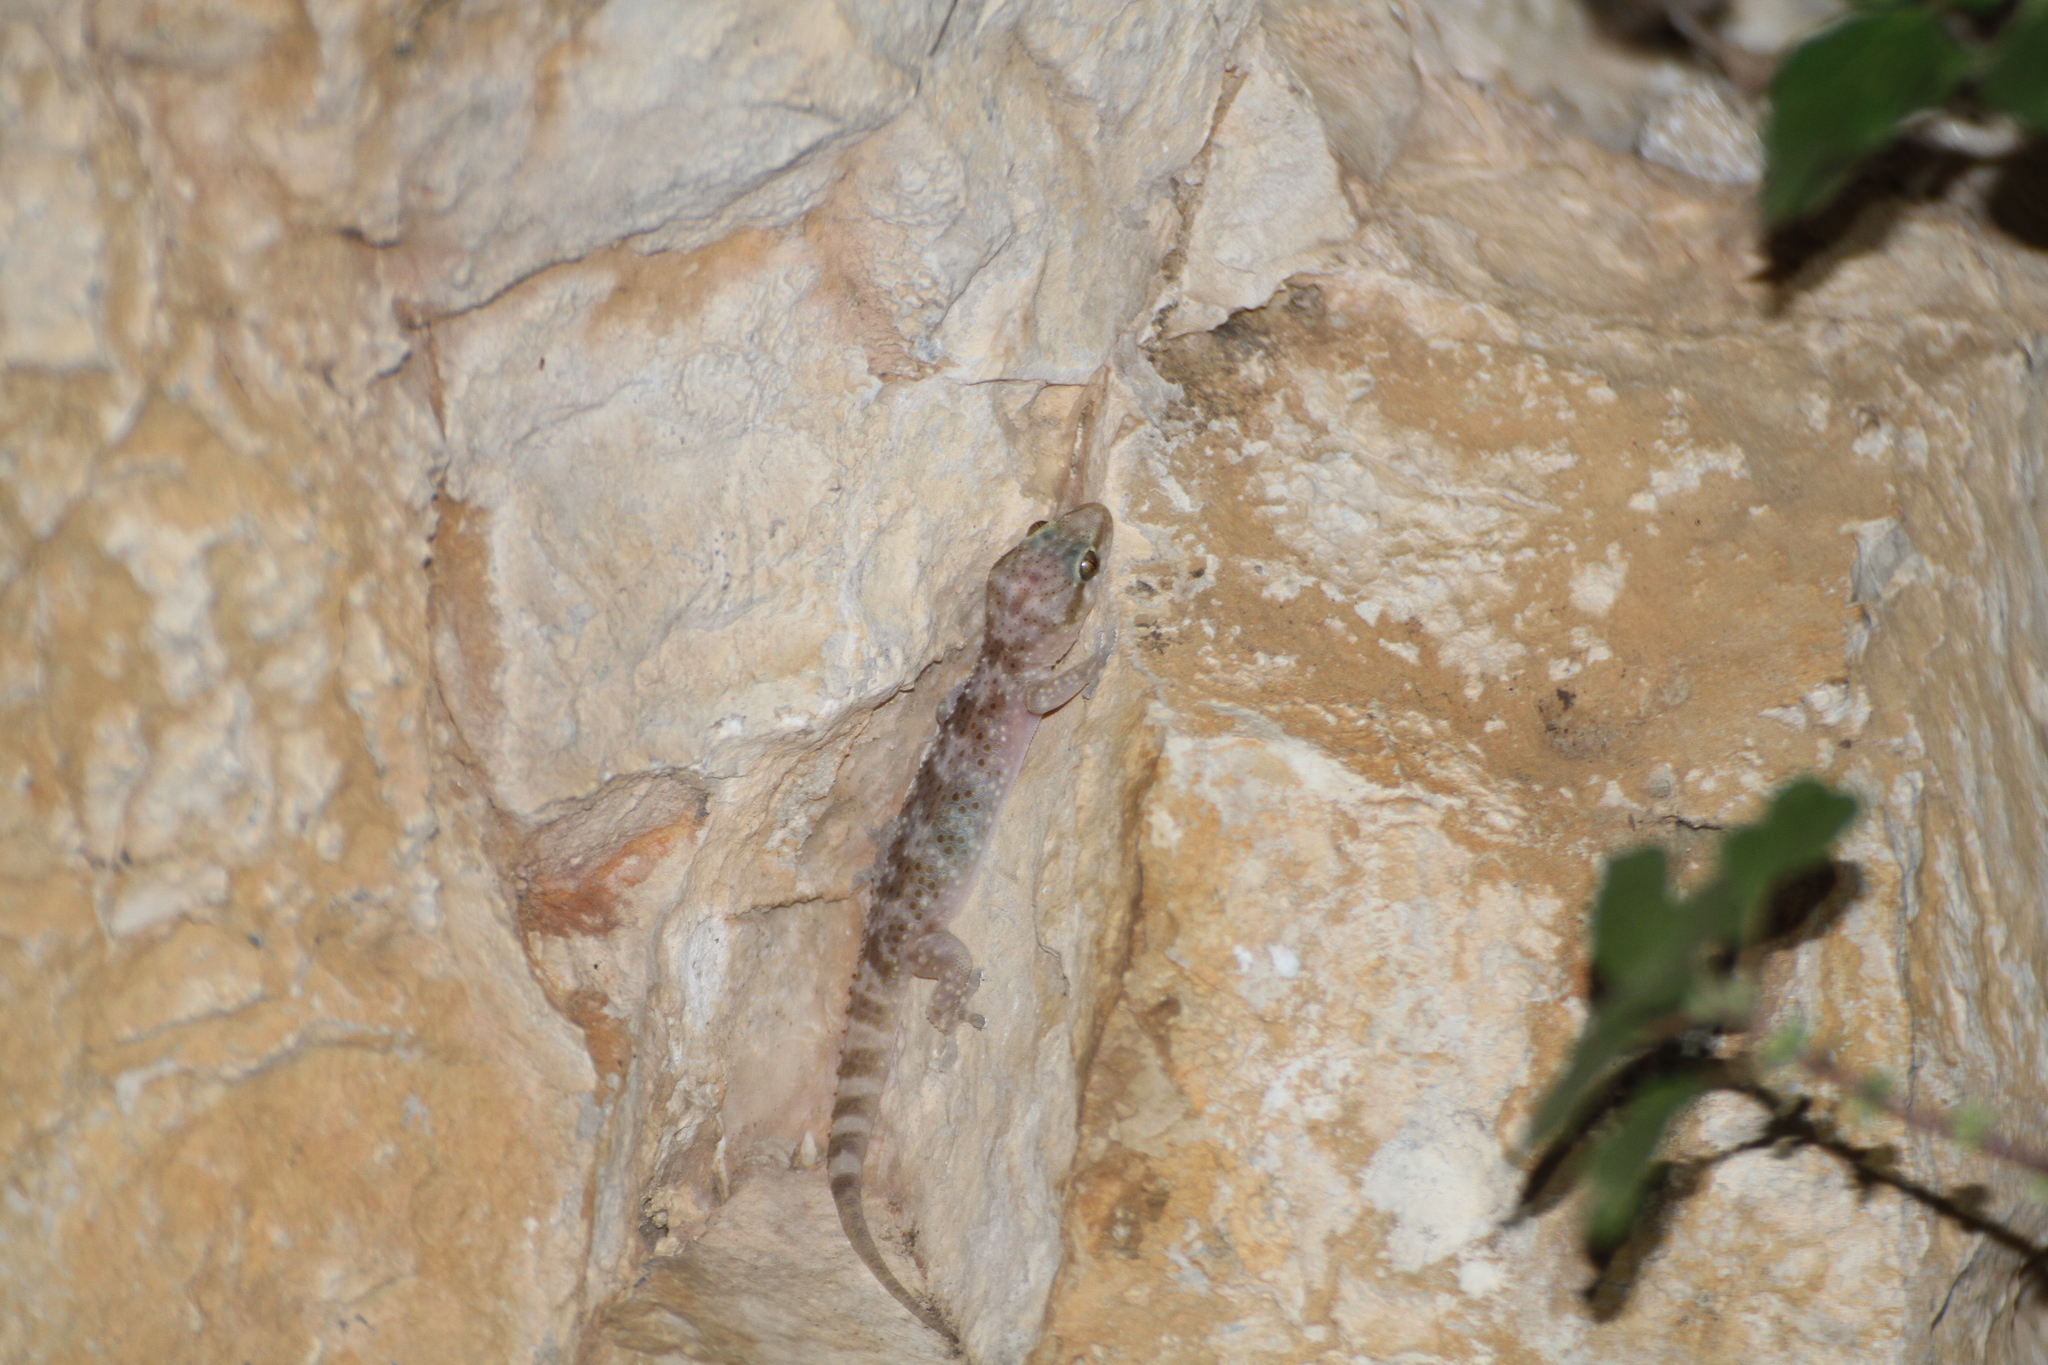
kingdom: Animalia
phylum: Chordata
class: Squamata
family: Gekkonidae
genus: Hemidactylus
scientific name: Hemidactylus turcicus
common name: Turkish gecko
